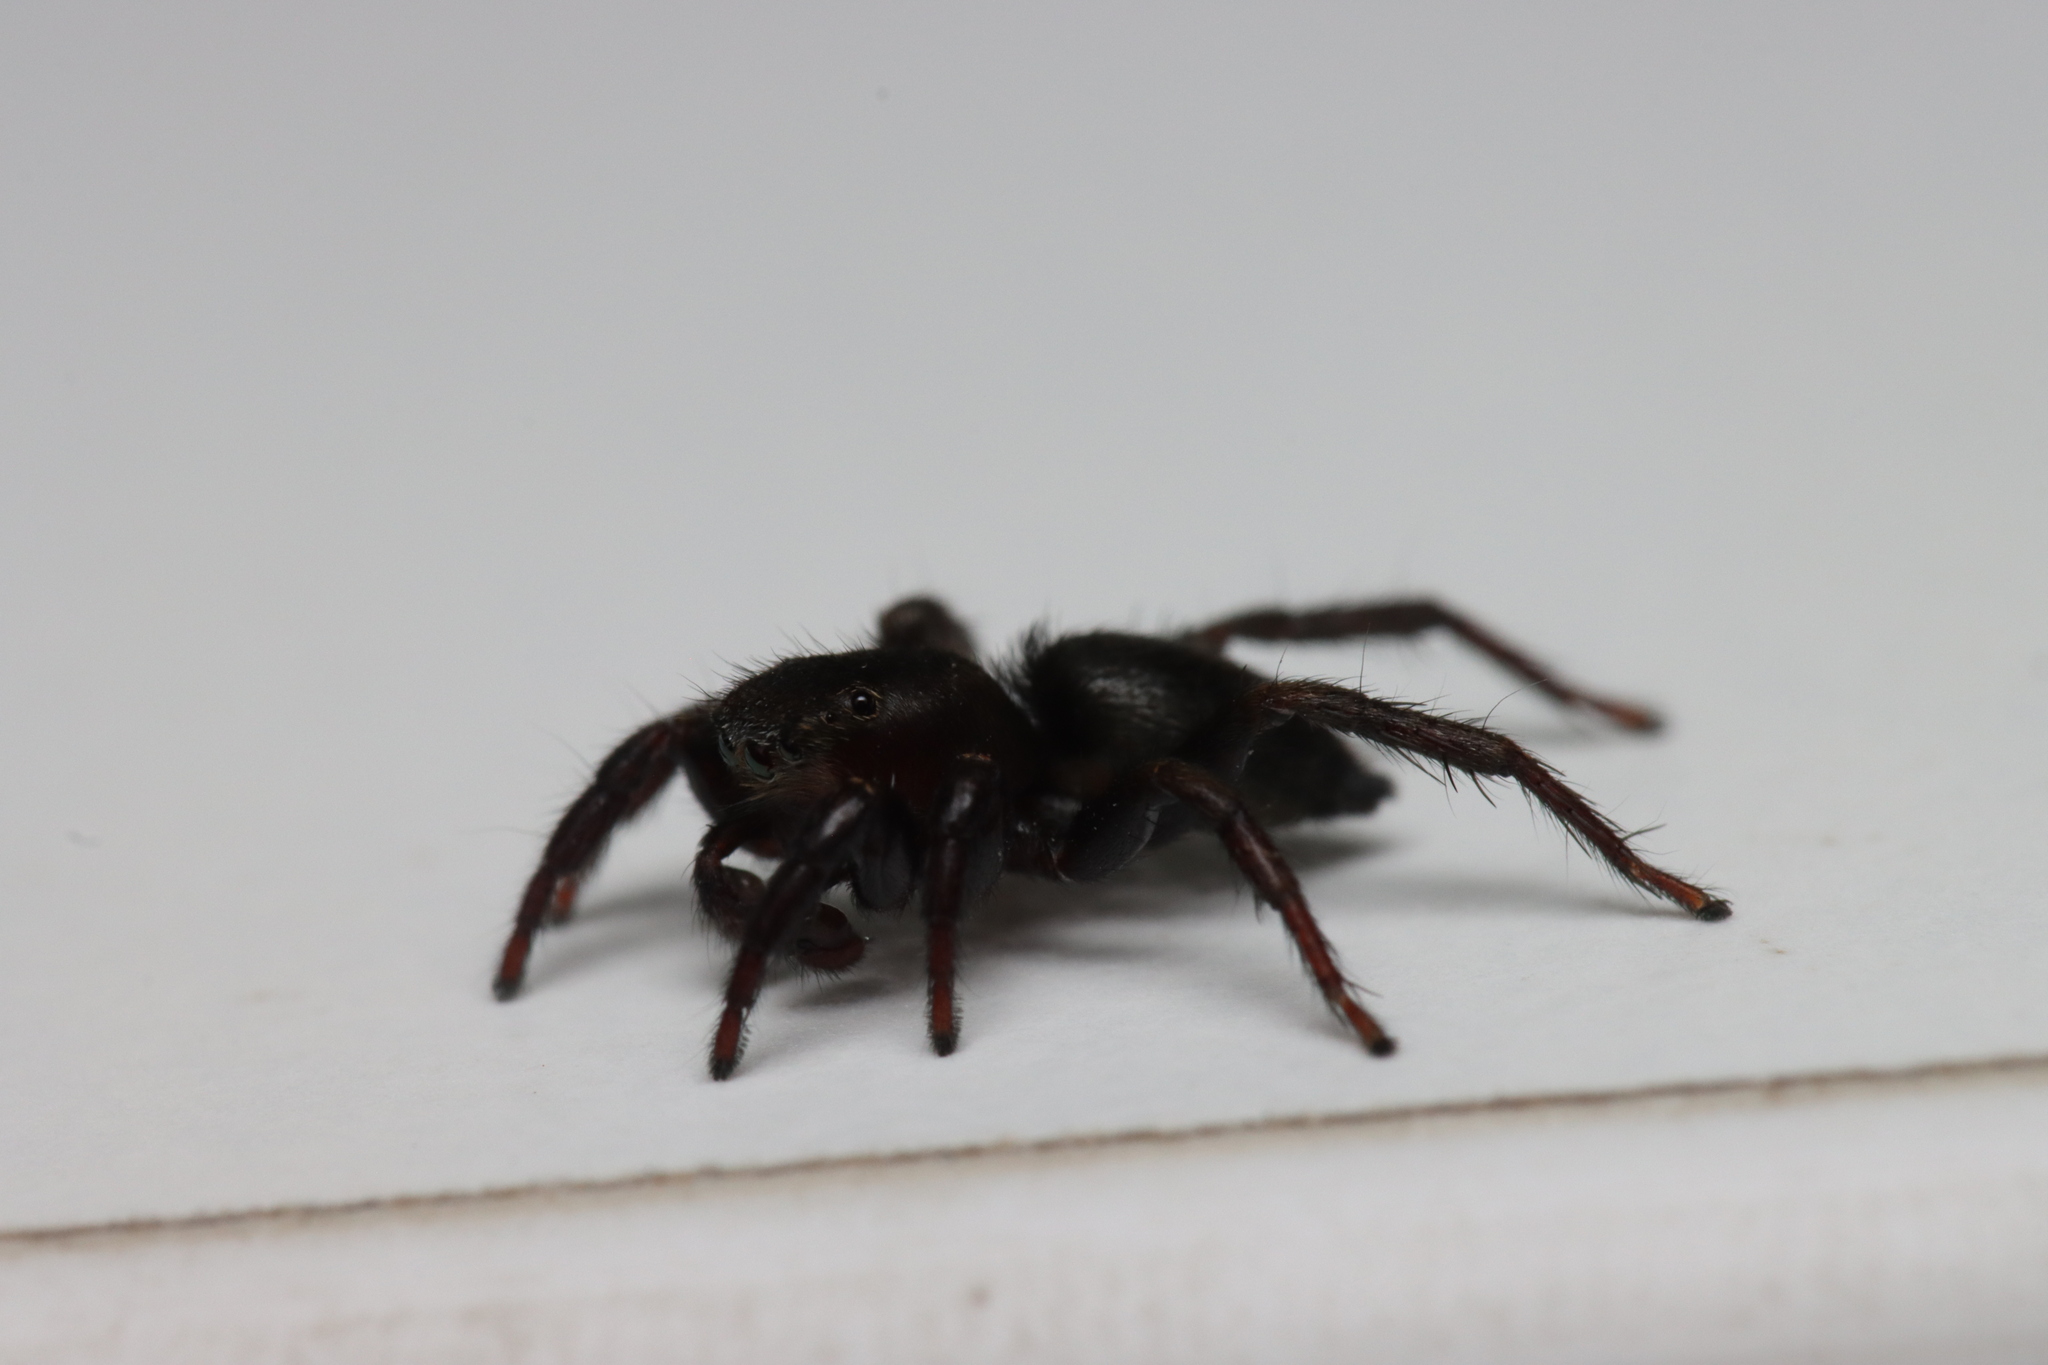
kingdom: Animalia
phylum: Arthropoda
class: Arachnida
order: Araneae
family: Salticidae
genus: Phlegra
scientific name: Phlegra fasciata
